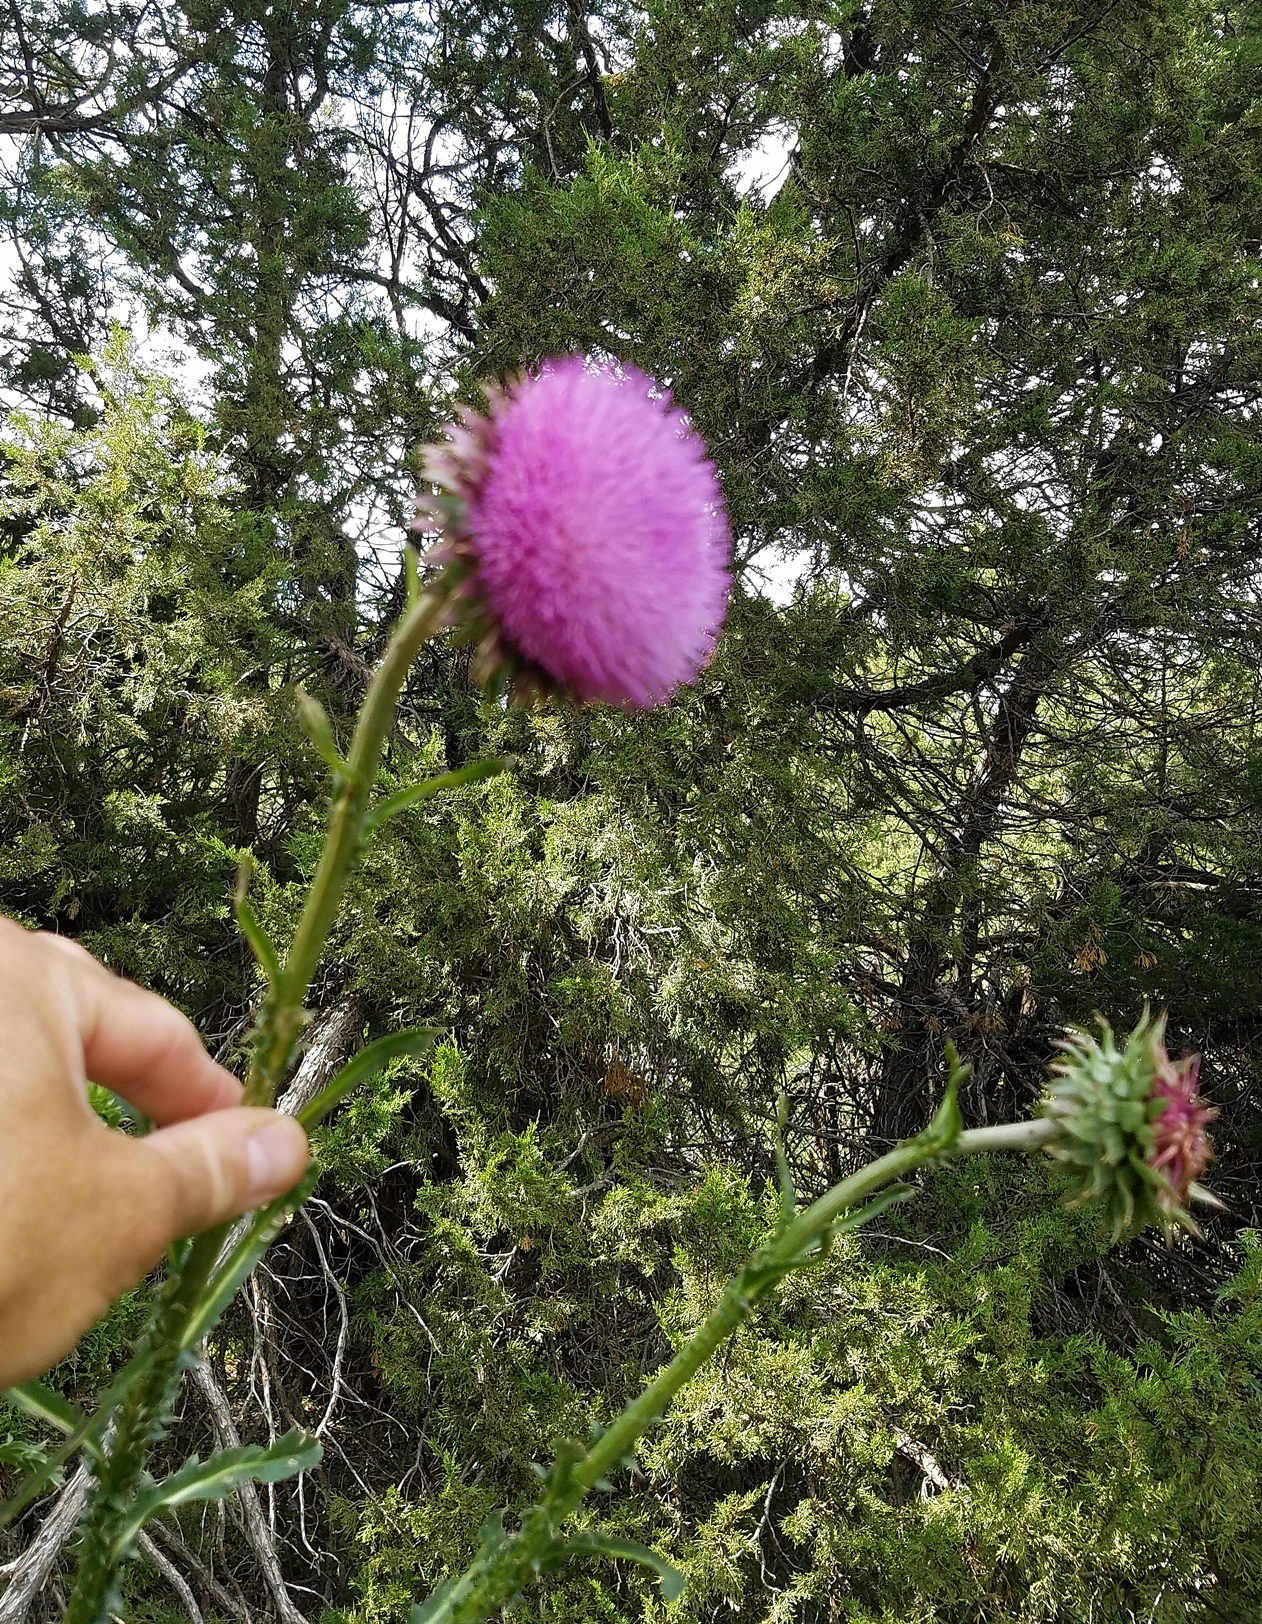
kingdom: Plantae
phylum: Tracheophyta
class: Magnoliopsida
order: Asterales
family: Asteraceae
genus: Carduus
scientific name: Carduus nutans
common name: Musk thistle
